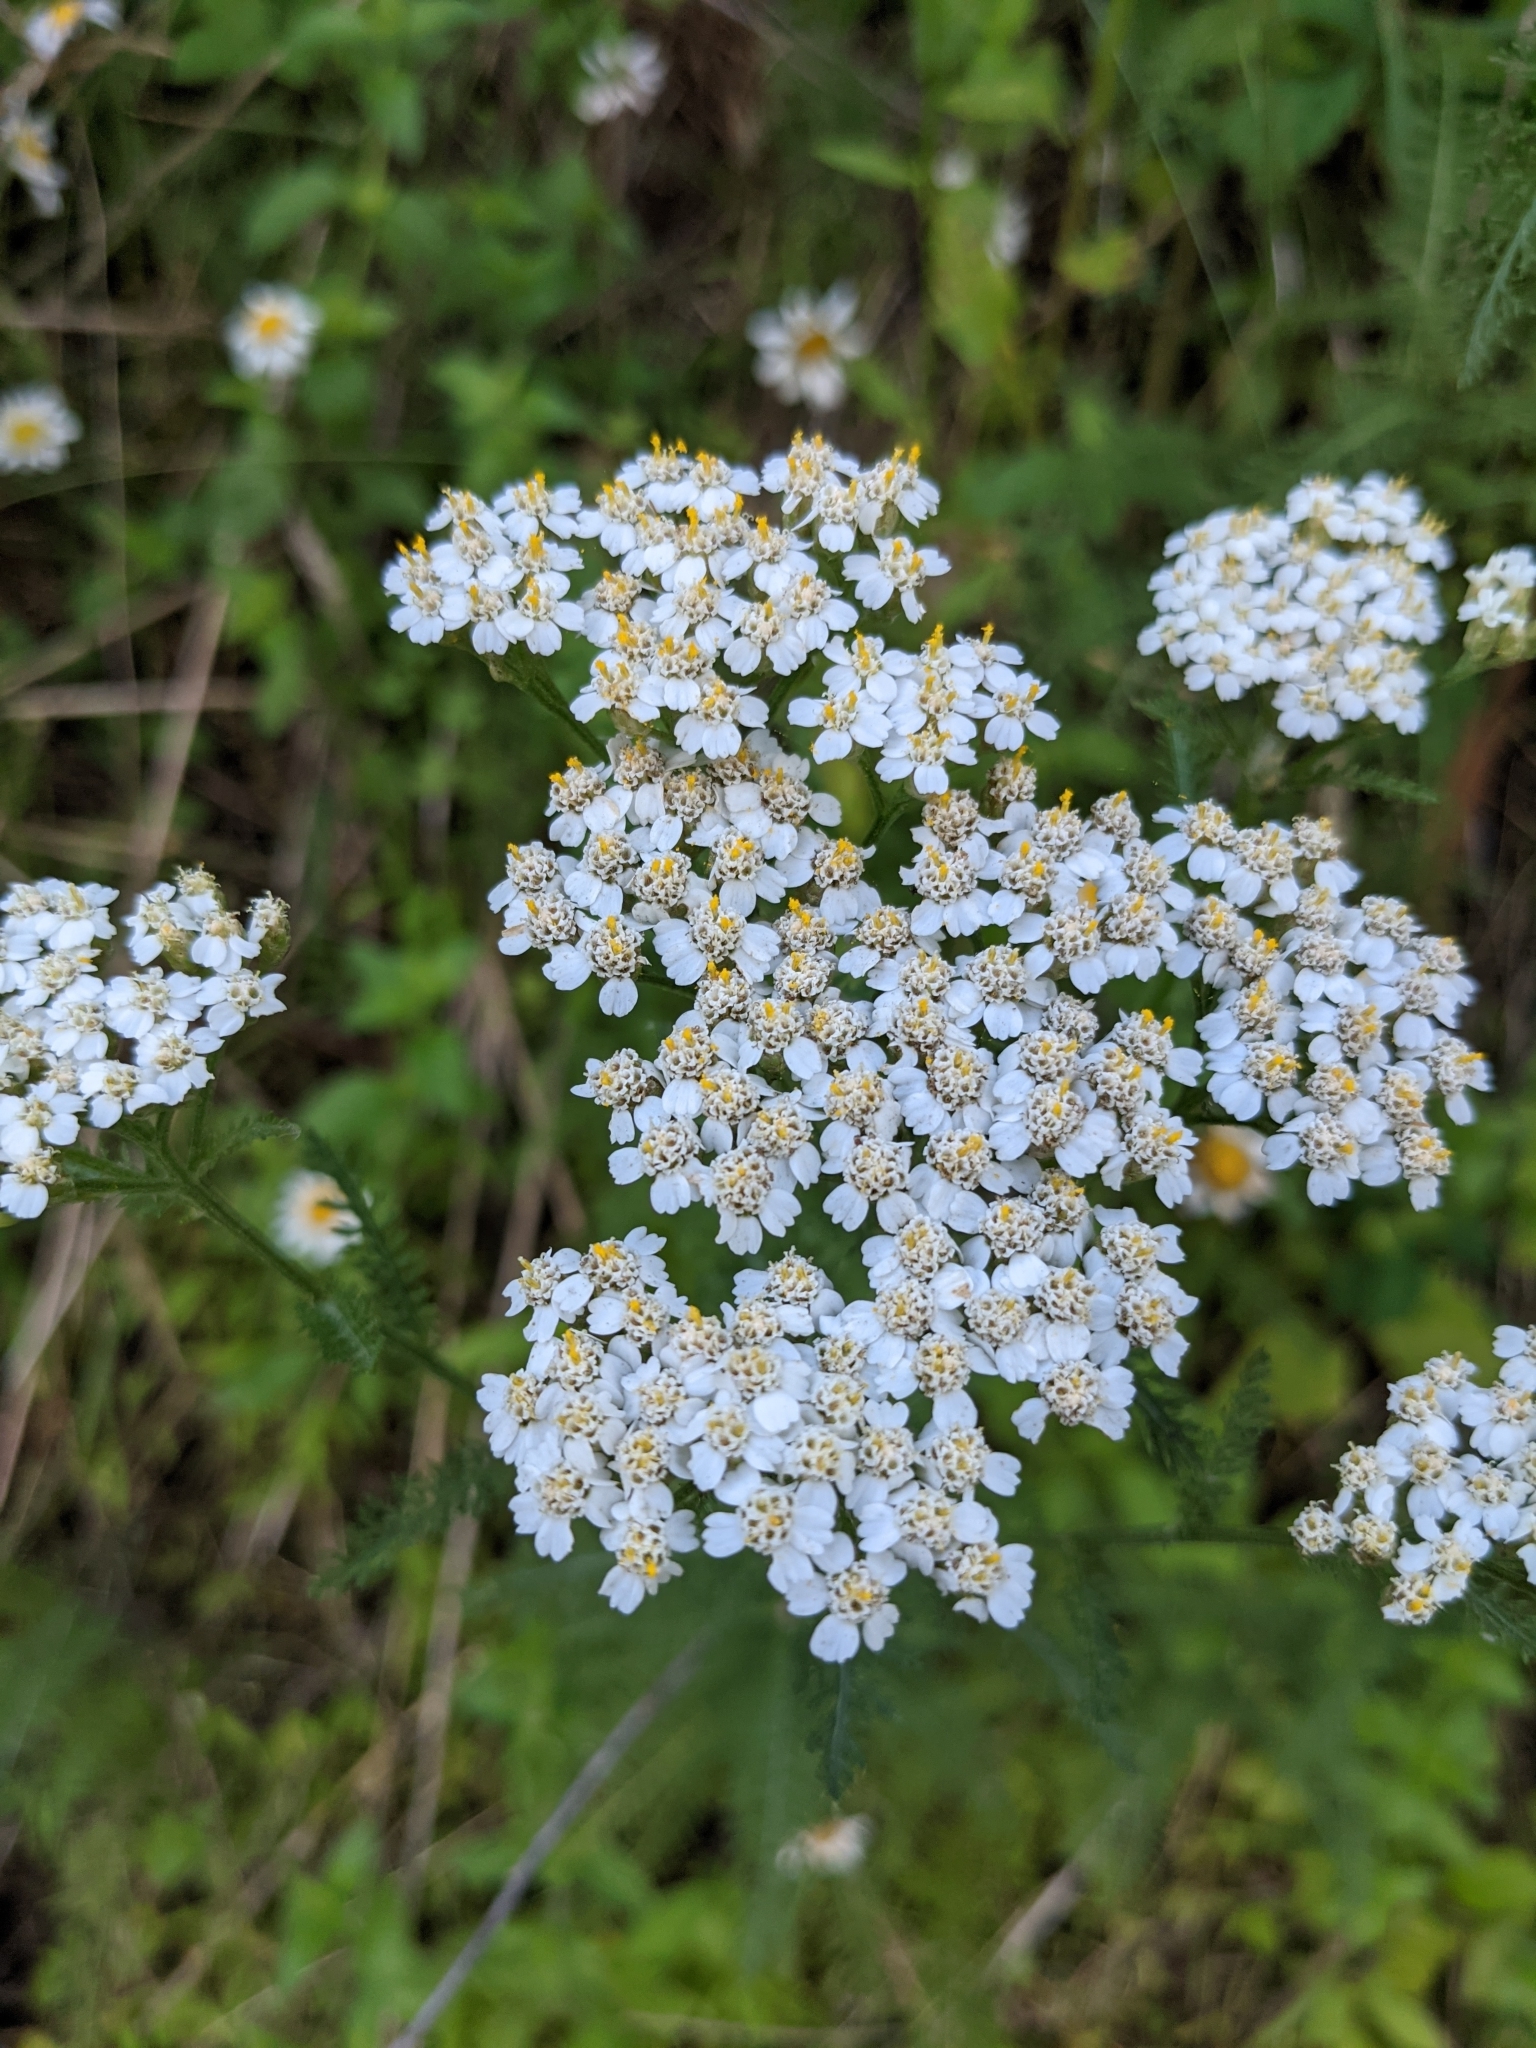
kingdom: Plantae
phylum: Tracheophyta
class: Magnoliopsida
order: Asterales
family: Asteraceae
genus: Achillea
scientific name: Achillea millefolium
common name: Yarrow
